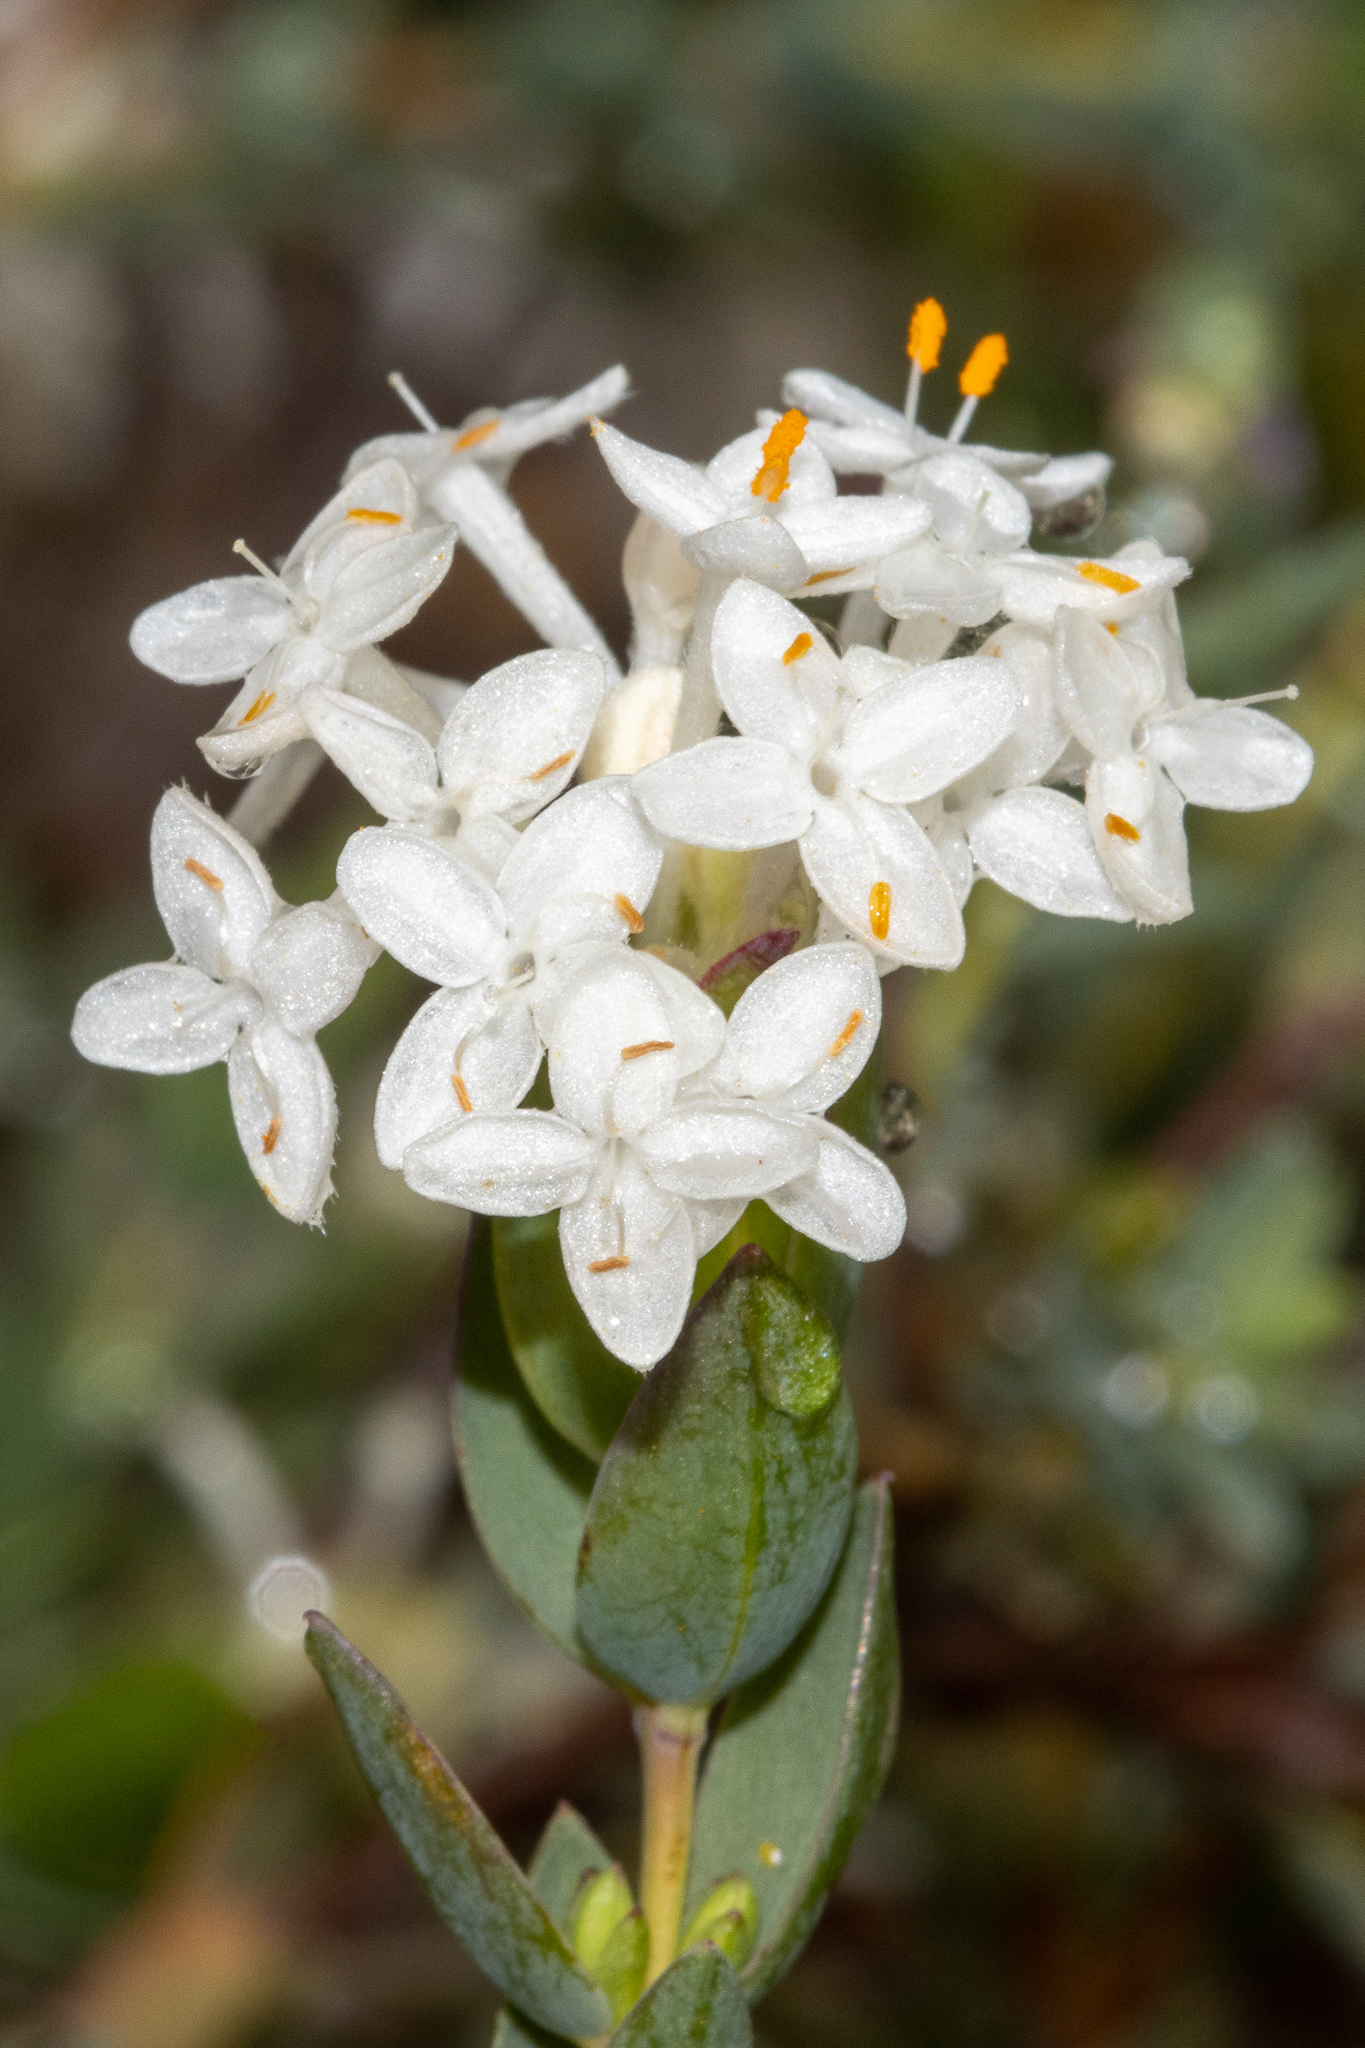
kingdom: Plantae
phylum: Tracheophyta
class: Magnoliopsida
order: Malvales
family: Thymelaeaceae
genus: Pimelea
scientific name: Pimelea glauca
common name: Smooth riceflower
